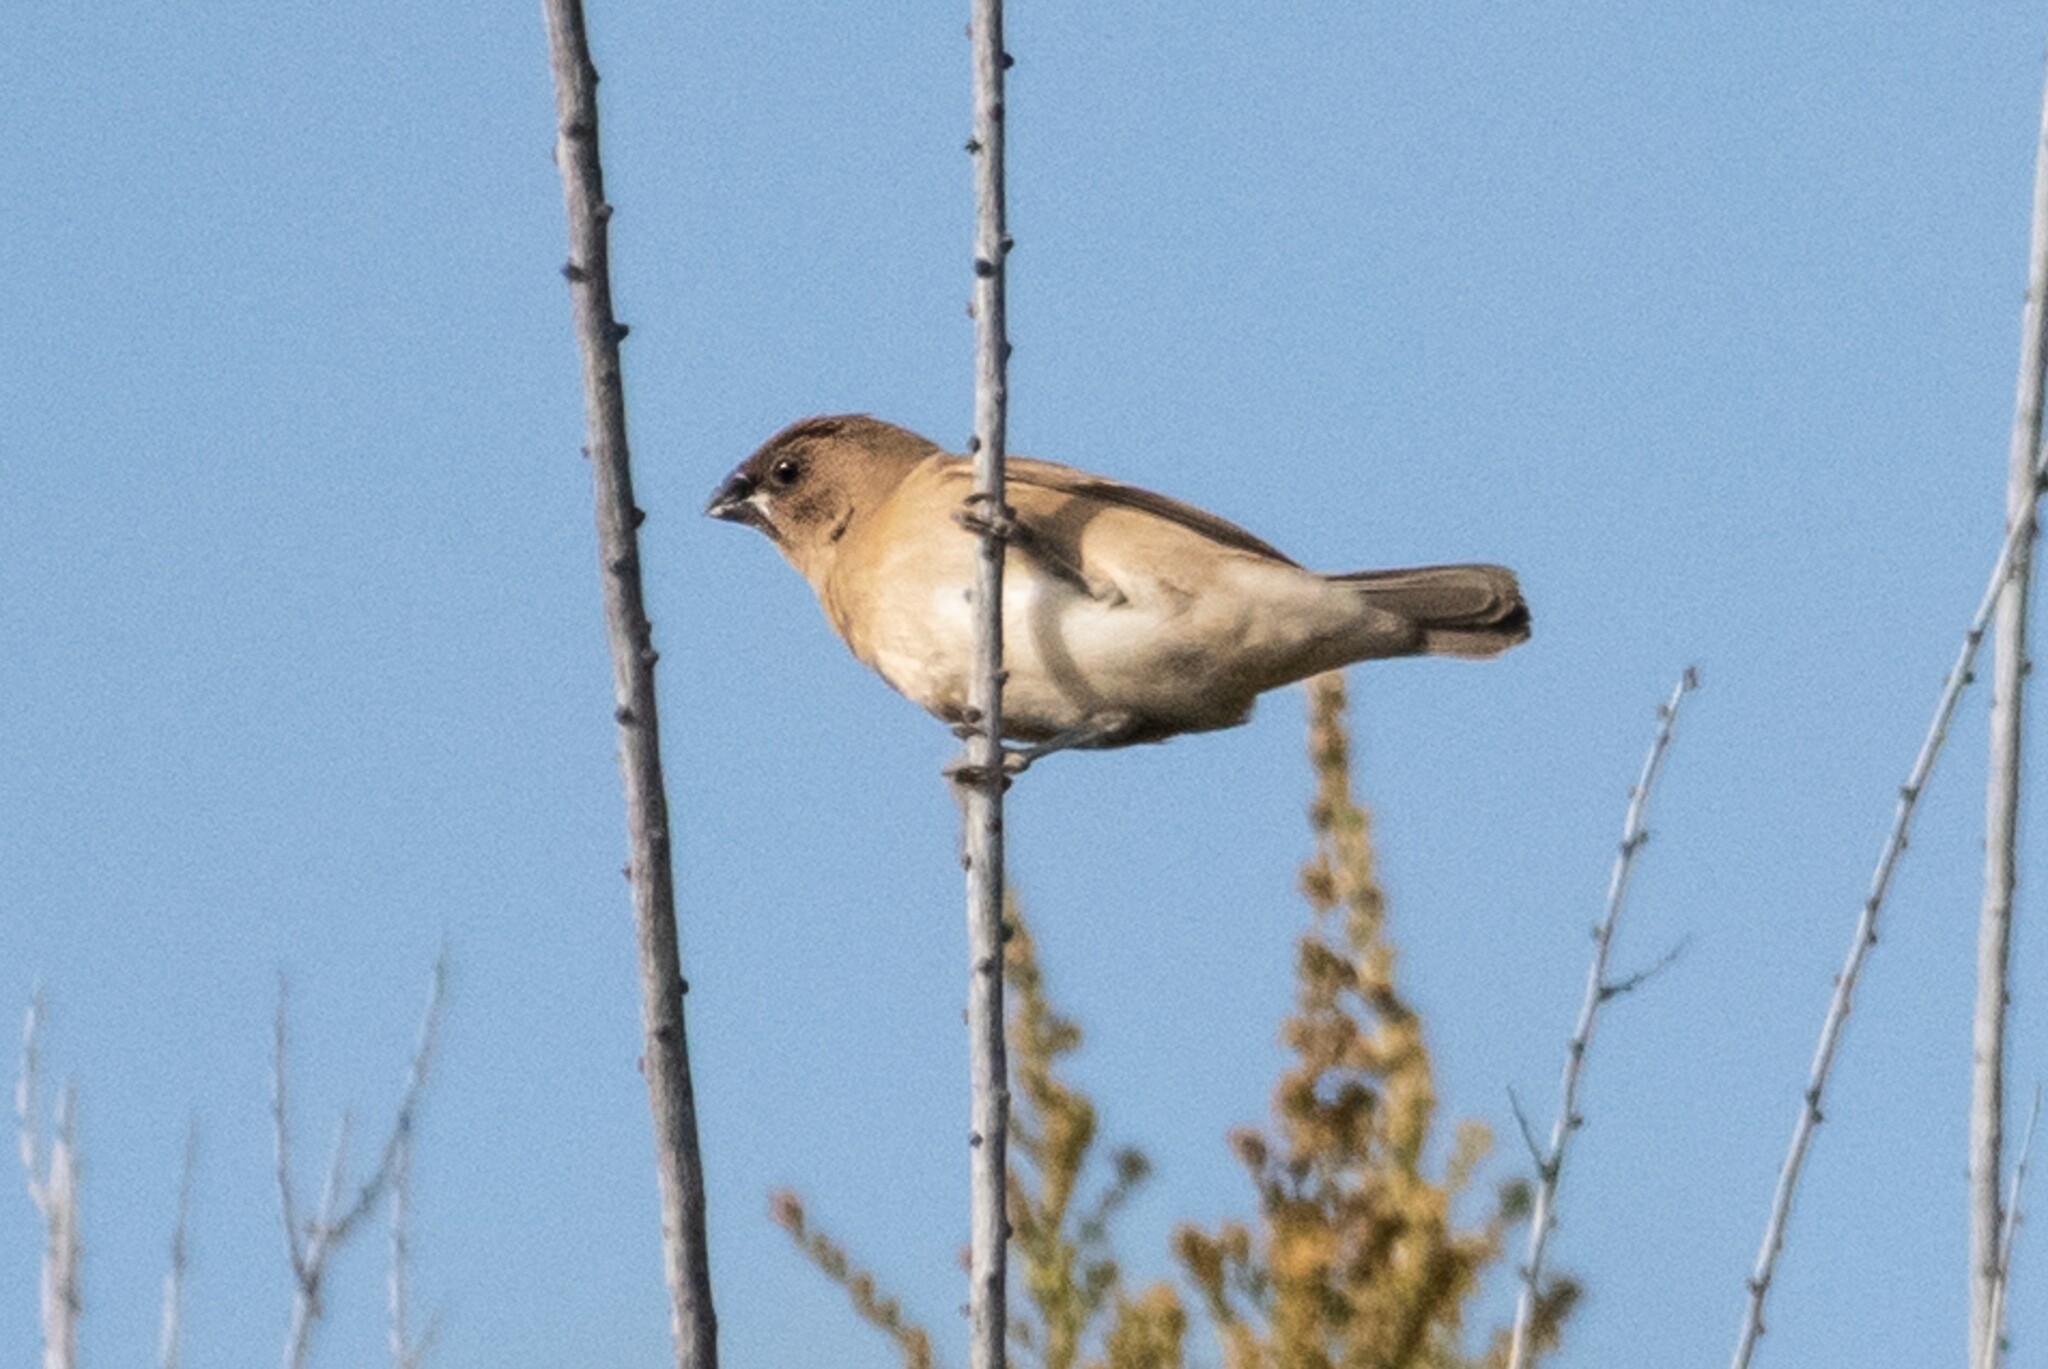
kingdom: Animalia
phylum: Chordata
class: Aves
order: Passeriformes
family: Estrildidae
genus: Lonchura
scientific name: Lonchura punctulata
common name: Scaly-breasted munia
